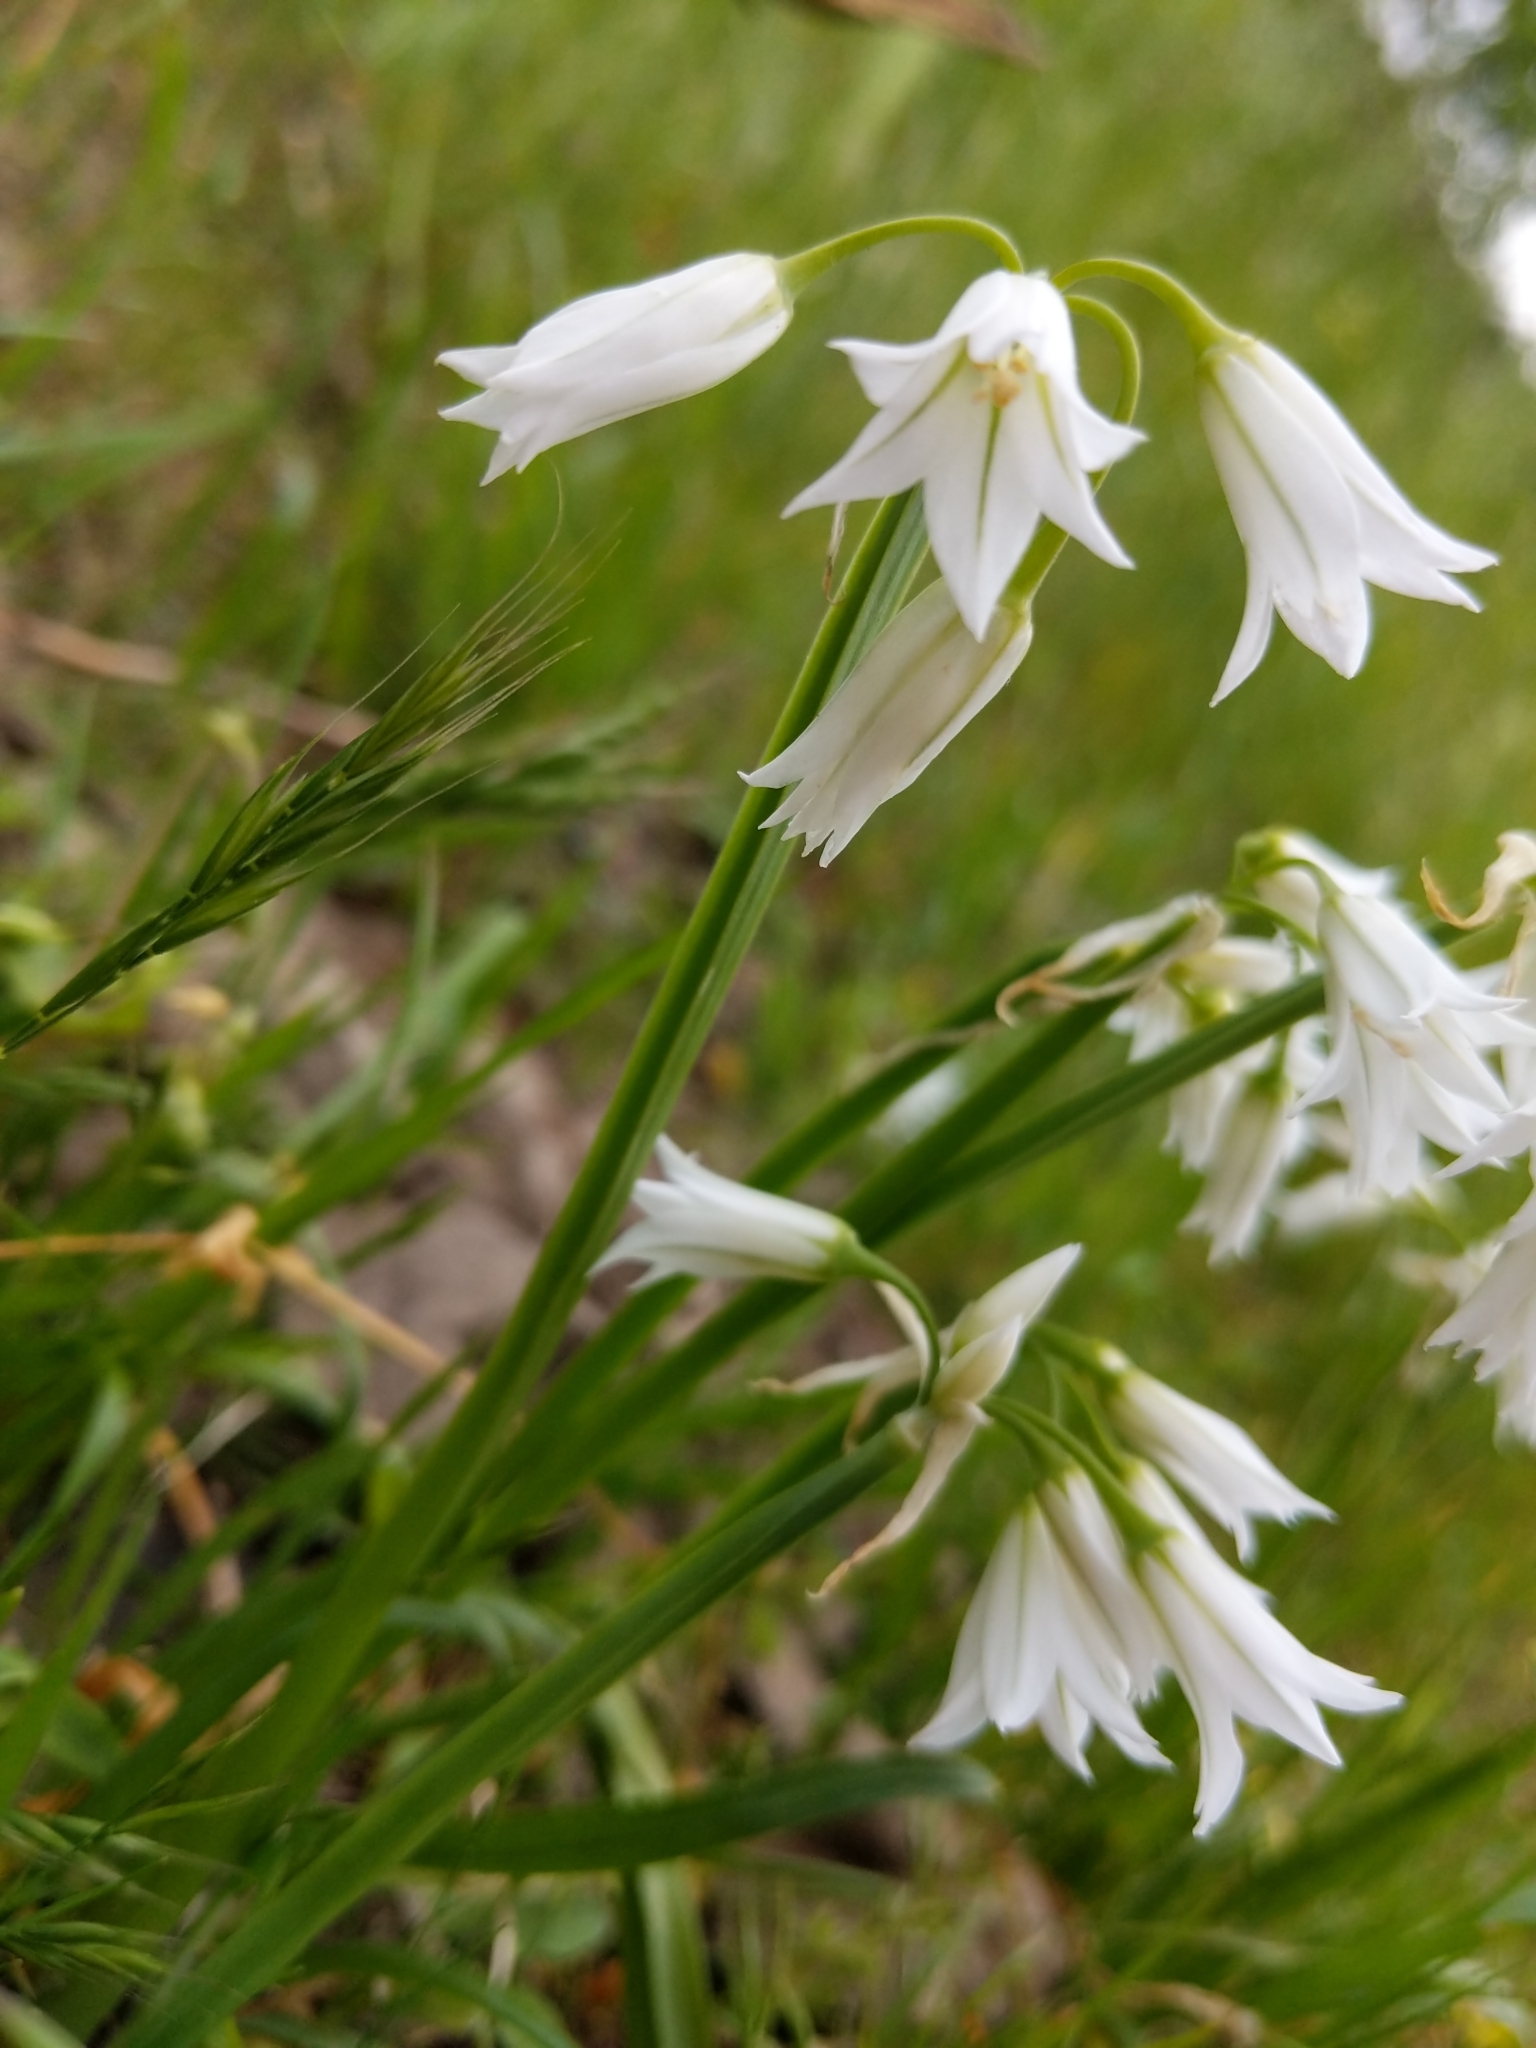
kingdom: Plantae
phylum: Tracheophyta
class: Liliopsida
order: Asparagales
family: Amaryllidaceae
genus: Allium
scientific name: Allium triquetrum
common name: Three-cornered garlic
